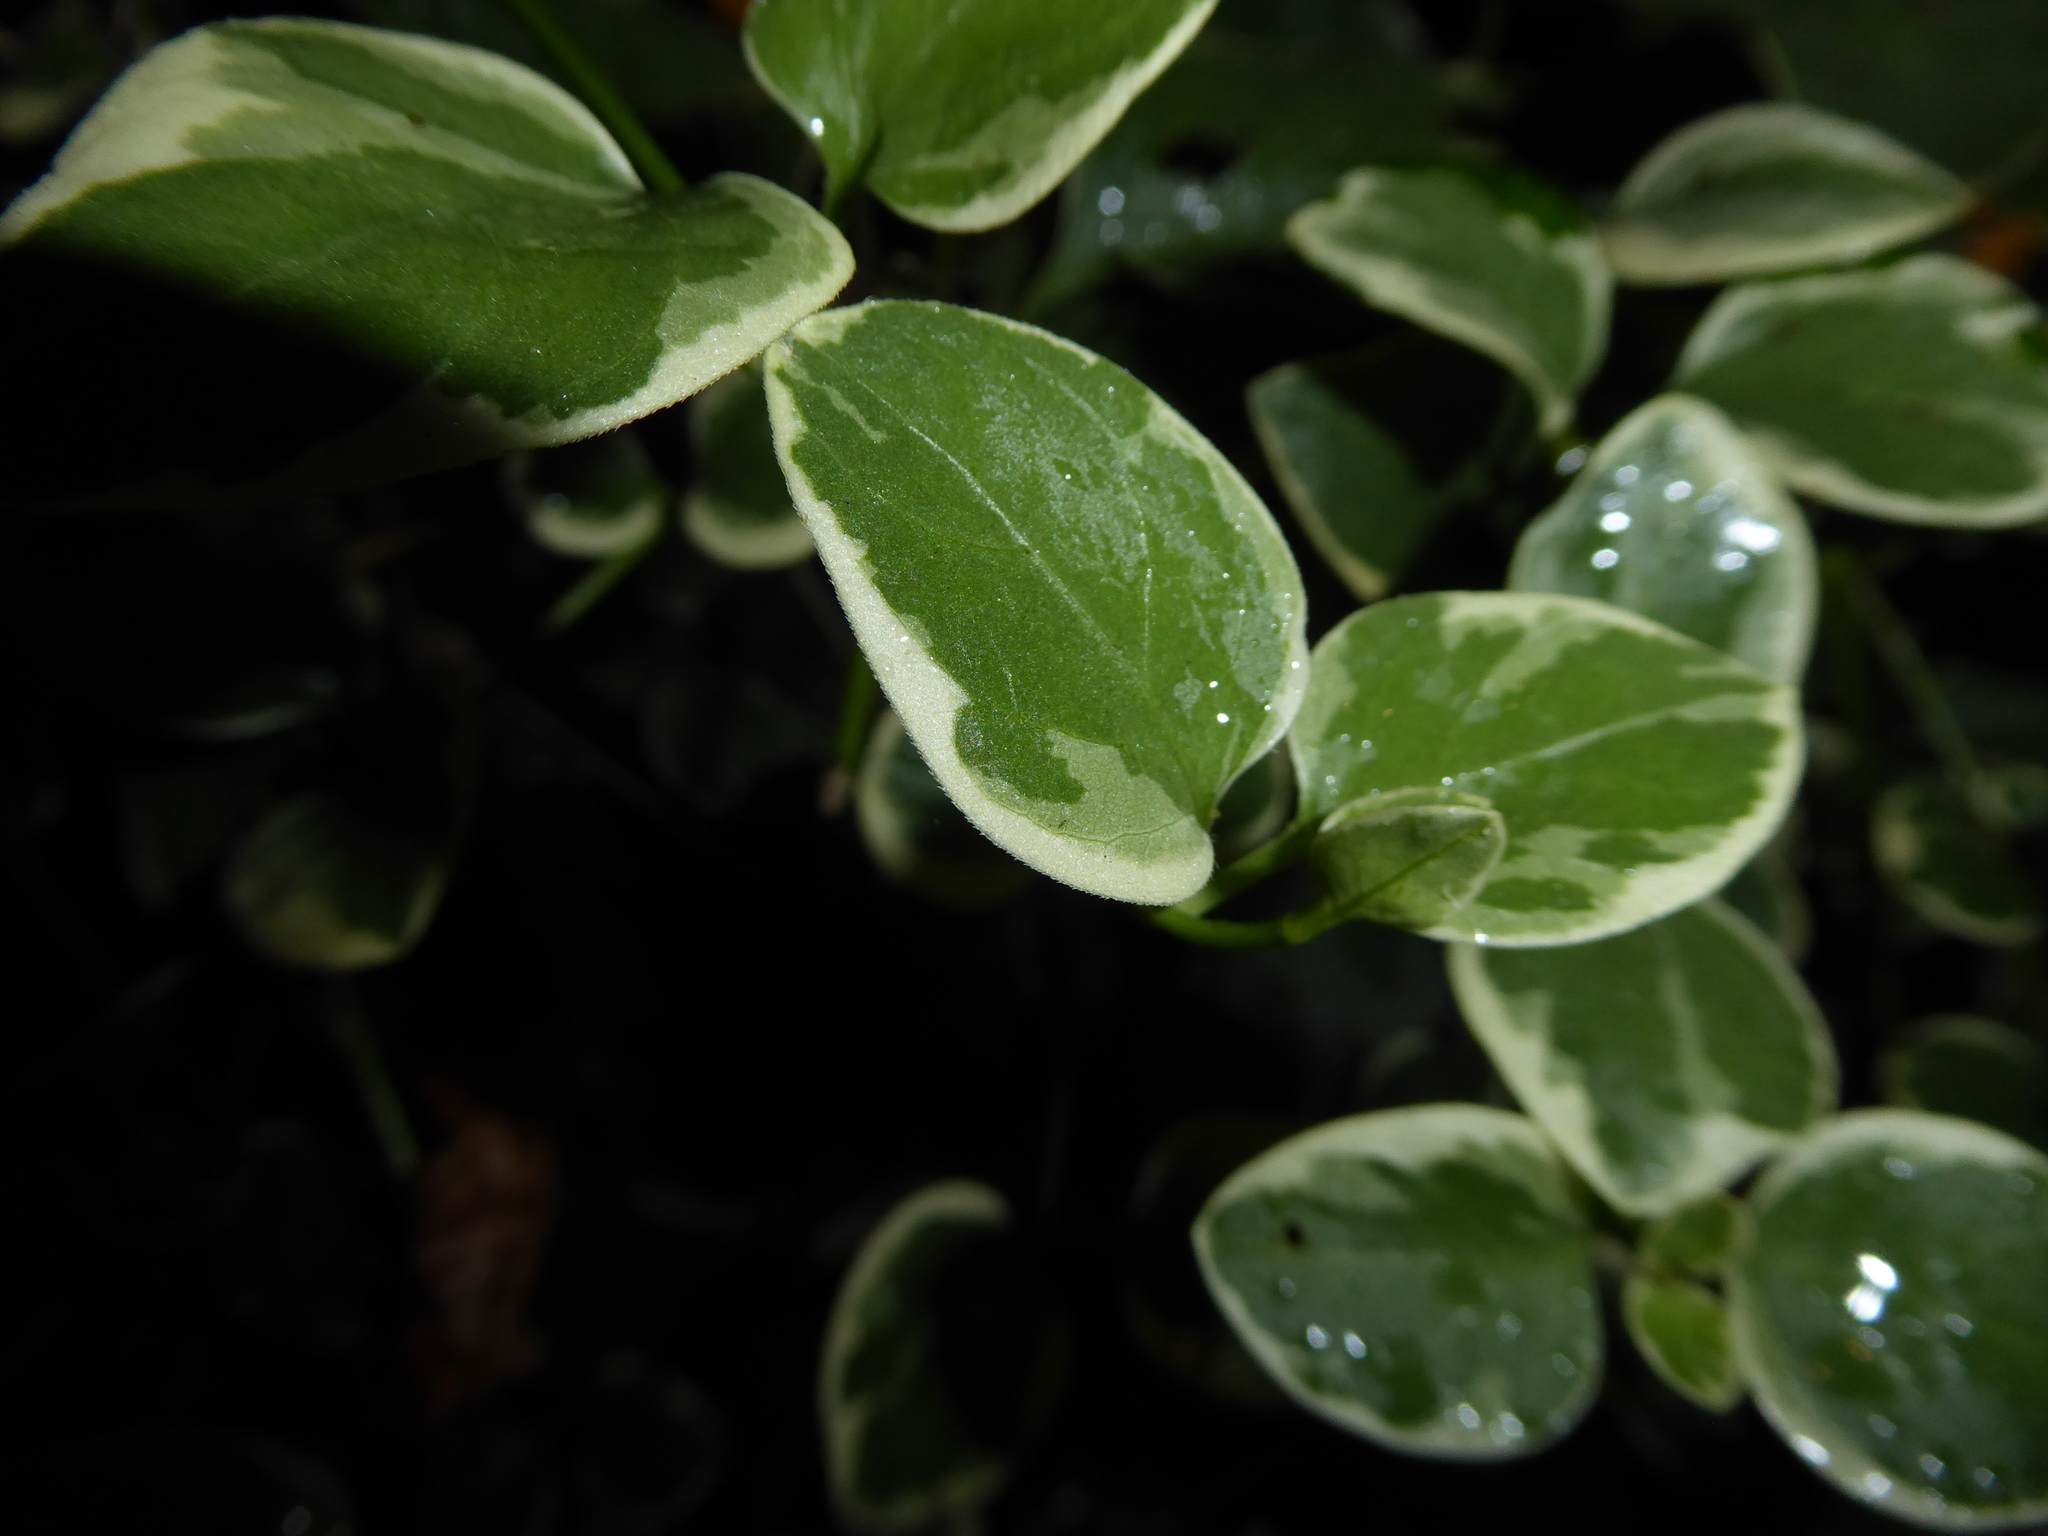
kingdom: Plantae
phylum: Tracheophyta
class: Magnoliopsida
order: Gentianales
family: Apocynaceae
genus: Vinca
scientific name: Vinca major
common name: Greater periwinkle
